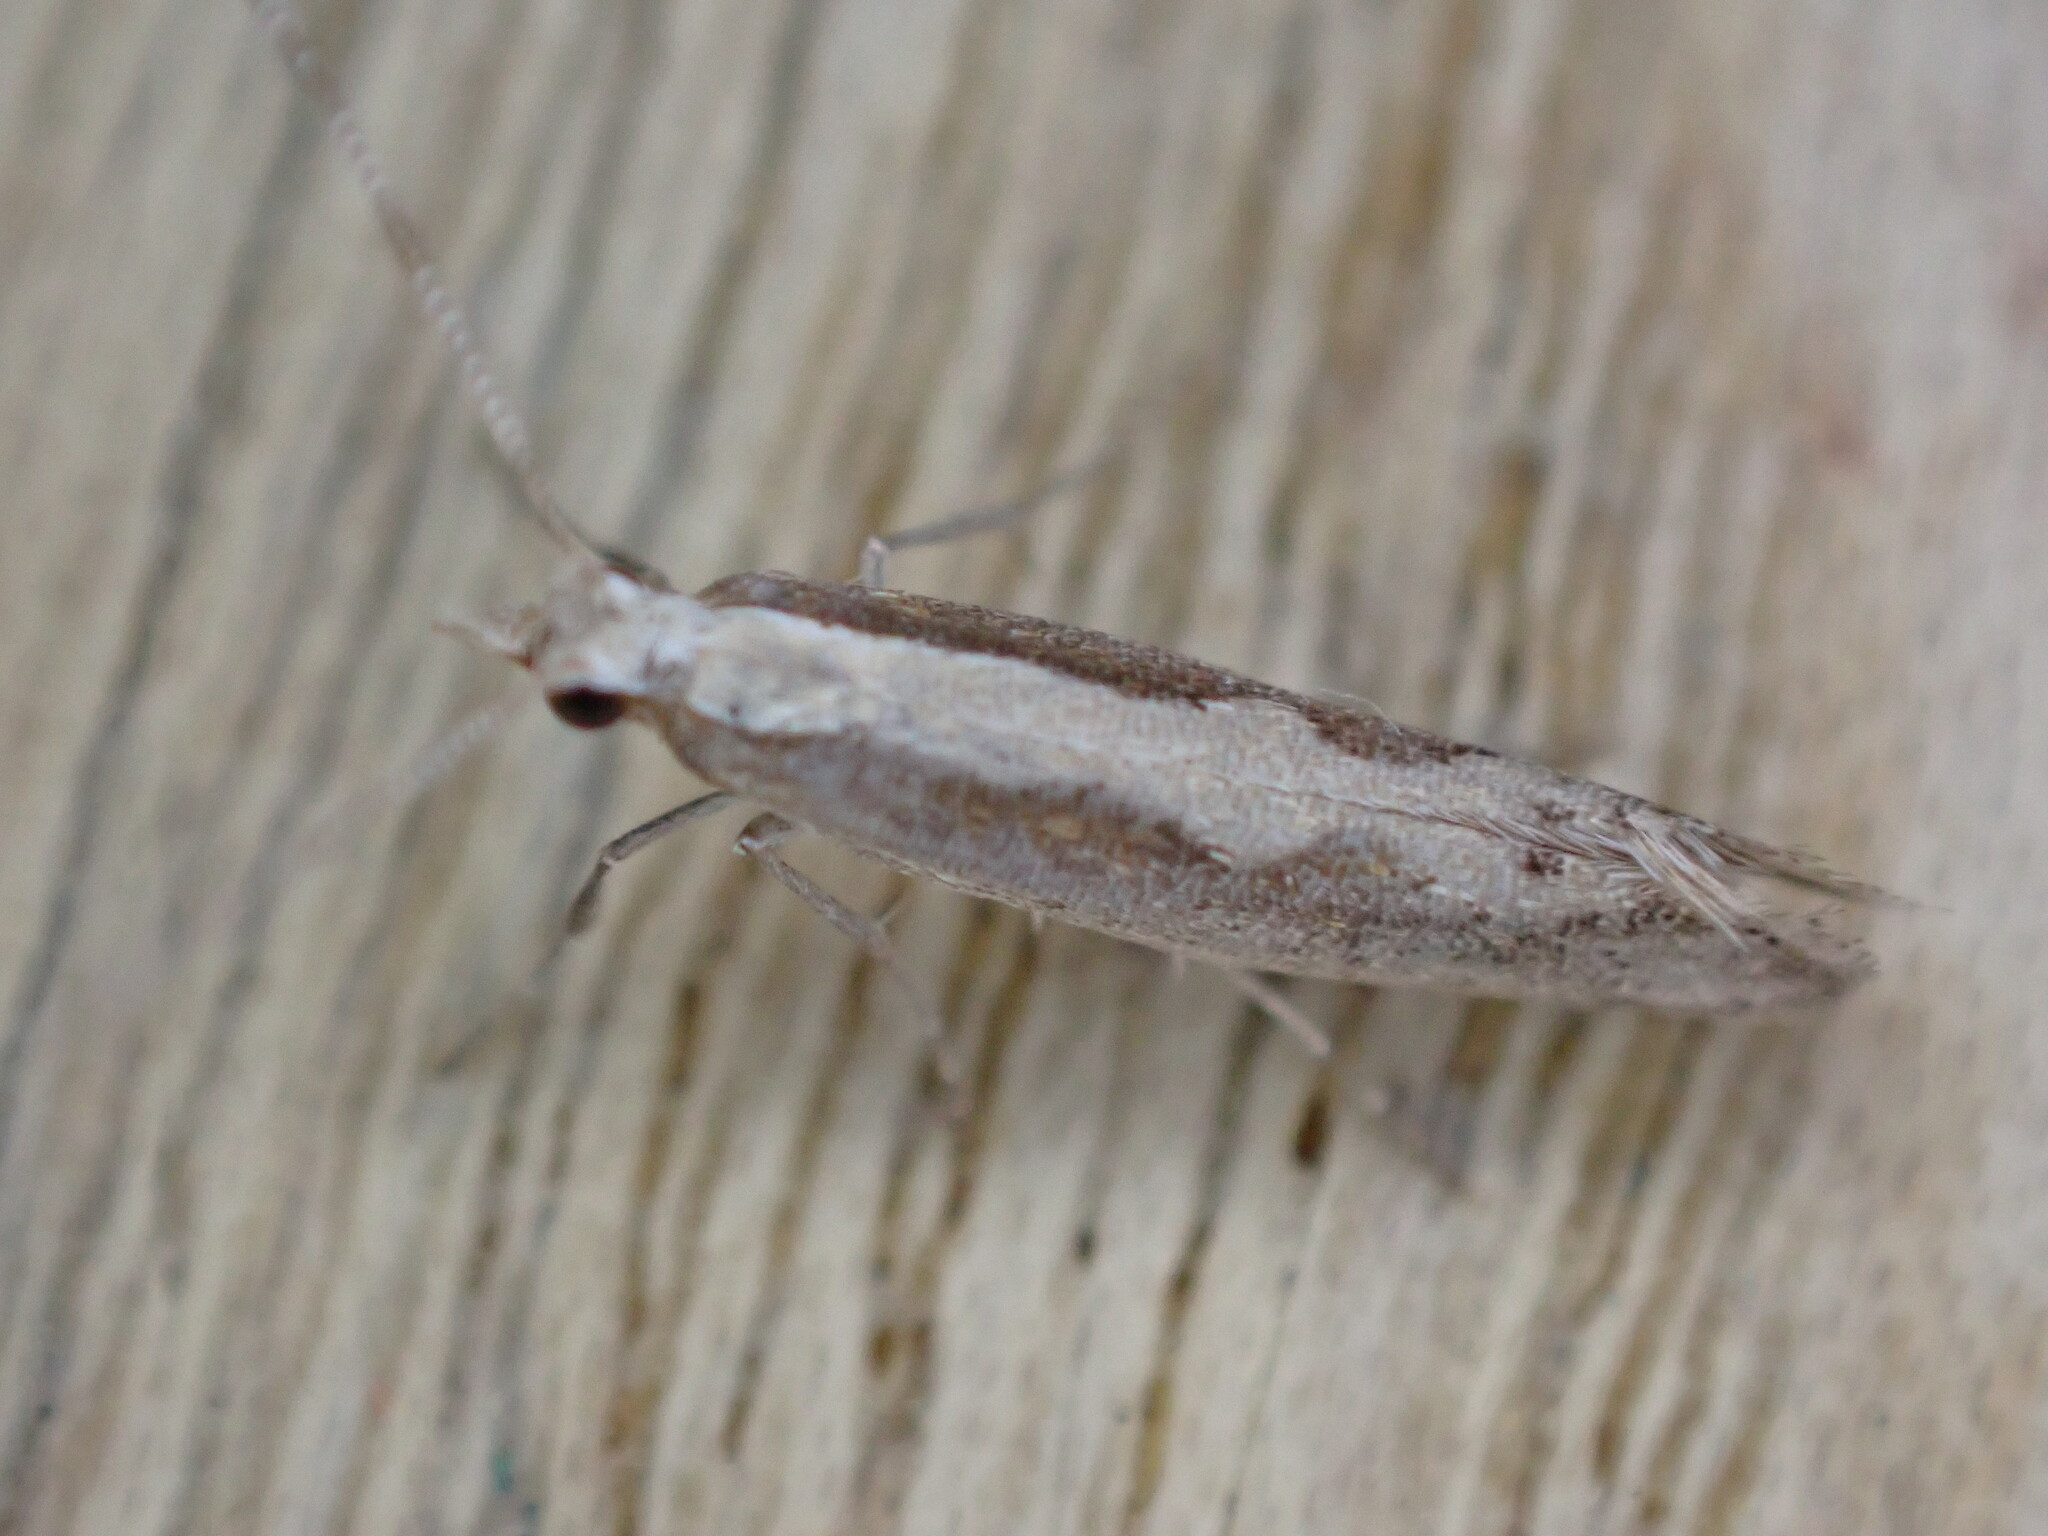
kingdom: Animalia
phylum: Arthropoda
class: Insecta
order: Lepidoptera
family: Plutellidae
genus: Plutella
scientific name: Plutella xylostella
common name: Diamond-back moth
